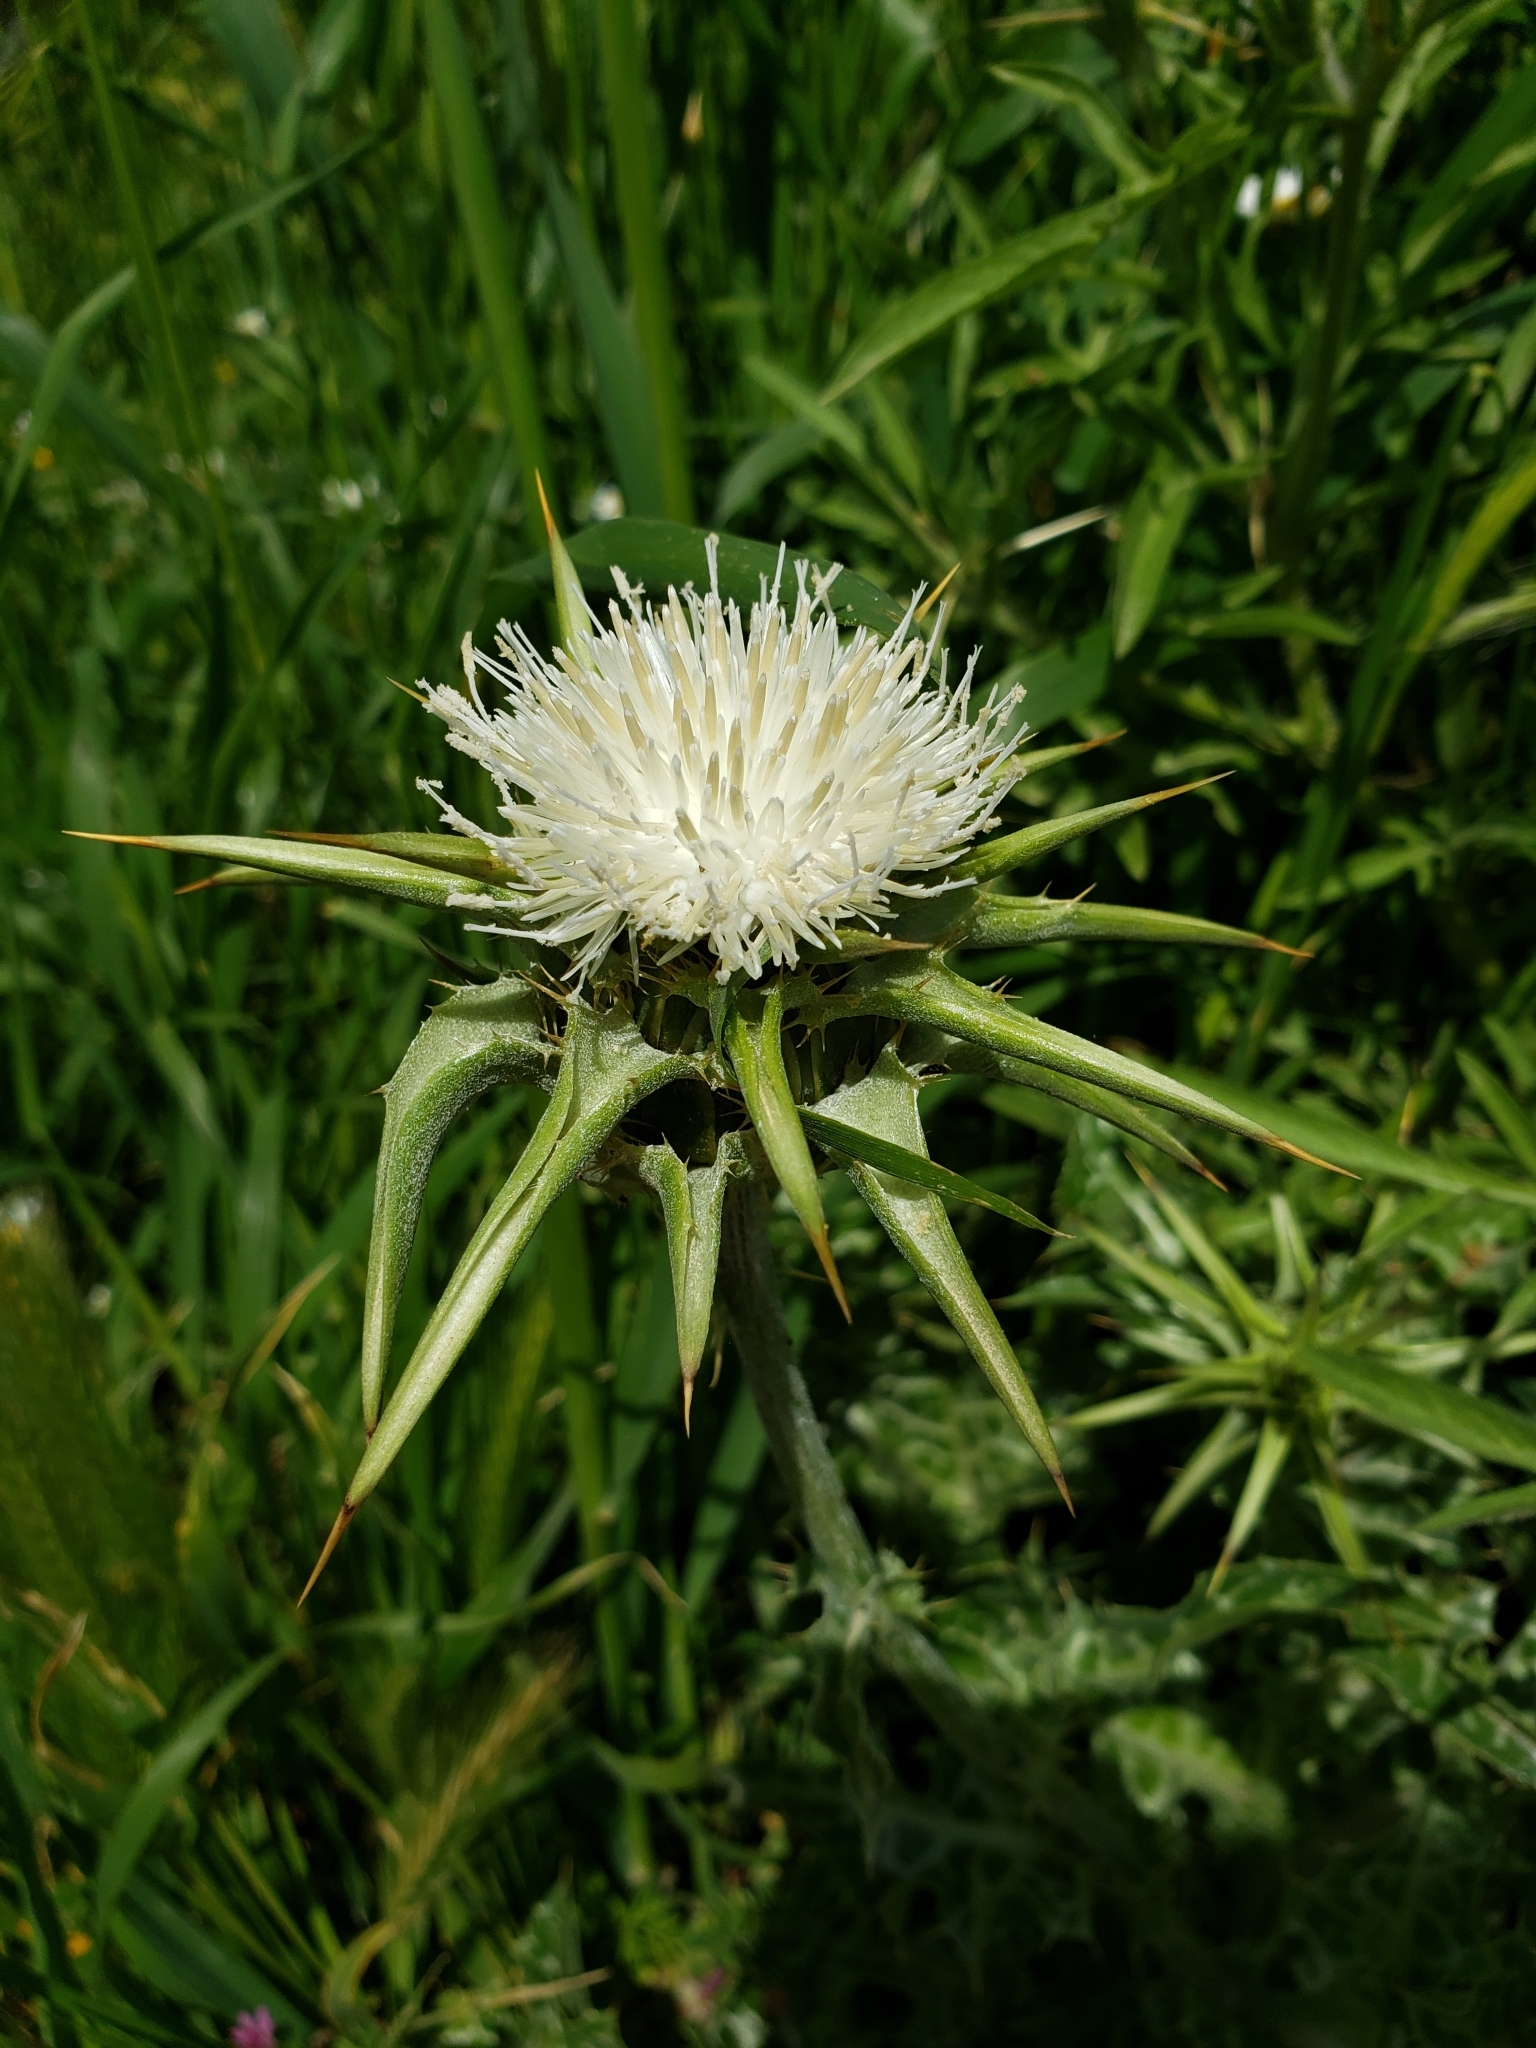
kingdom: Plantae
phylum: Tracheophyta
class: Magnoliopsida
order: Asterales
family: Asteraceae
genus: Silybum
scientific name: Silybum marianum
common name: Milk thistle
